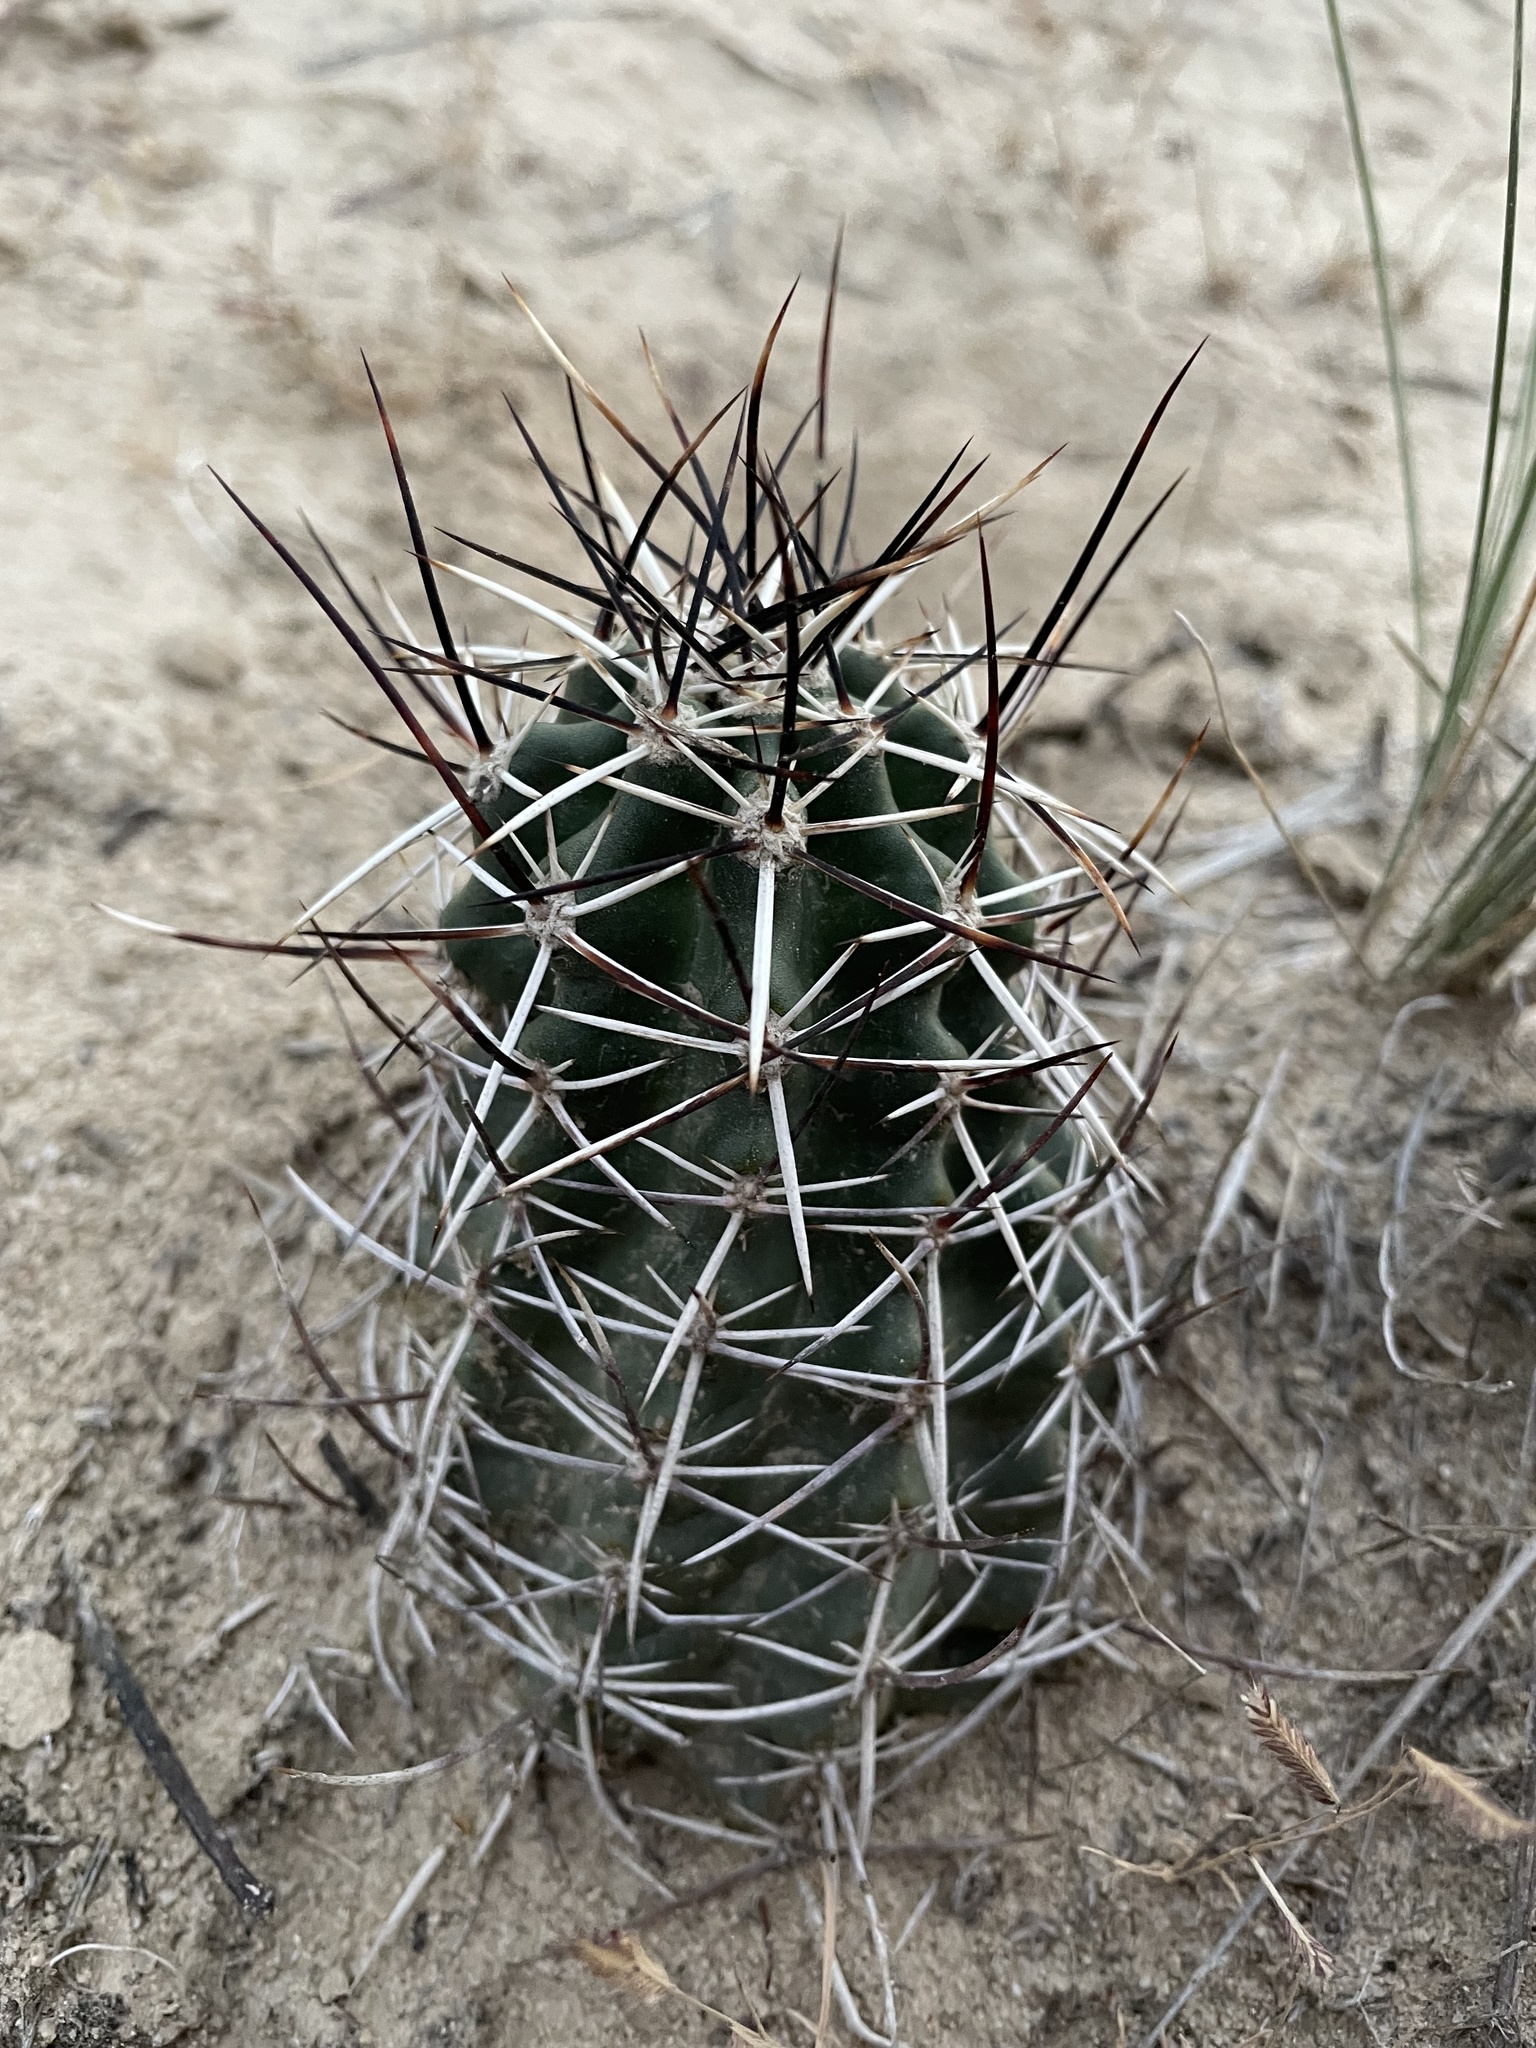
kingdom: Plantae
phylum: Tracheophyta
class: Magnoliopsida
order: Caryophyllales
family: Cactaceae
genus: Echinocereus
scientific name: Echinocereus fendleri
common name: Fendler's hedgehog cactus
